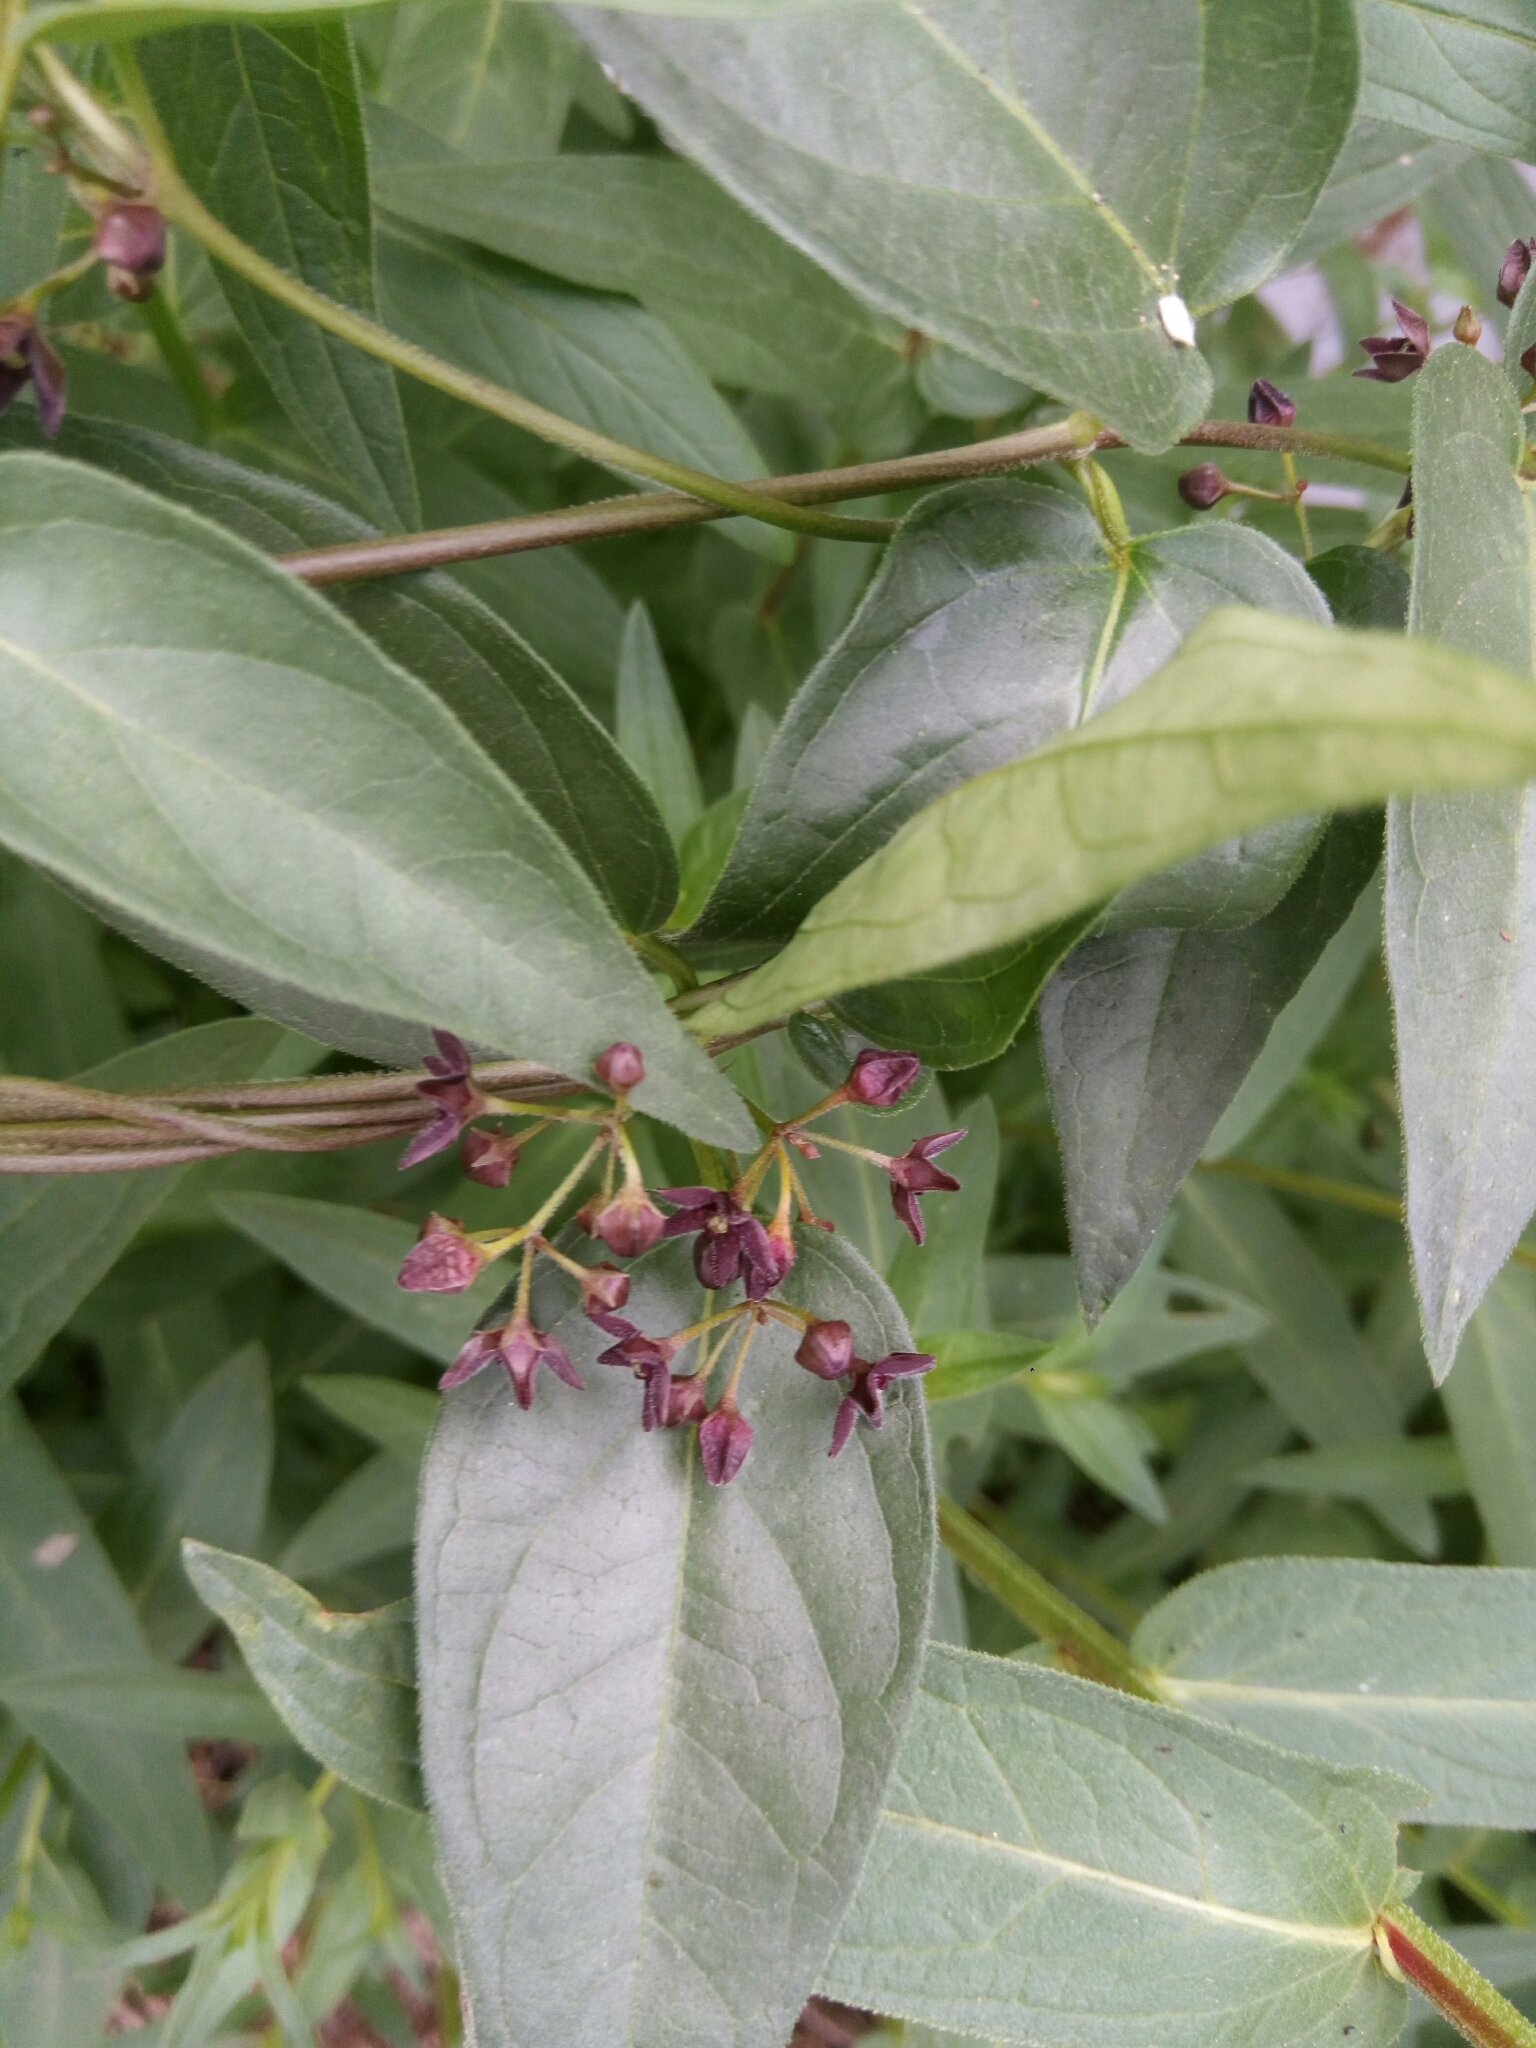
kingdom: Plantae
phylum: Tracheophyta
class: Magnoliopsida
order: Gentianales
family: Apocynaceae
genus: Vincetoxicum
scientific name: Vincetoxicum nigrum
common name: Black swallow-wort
